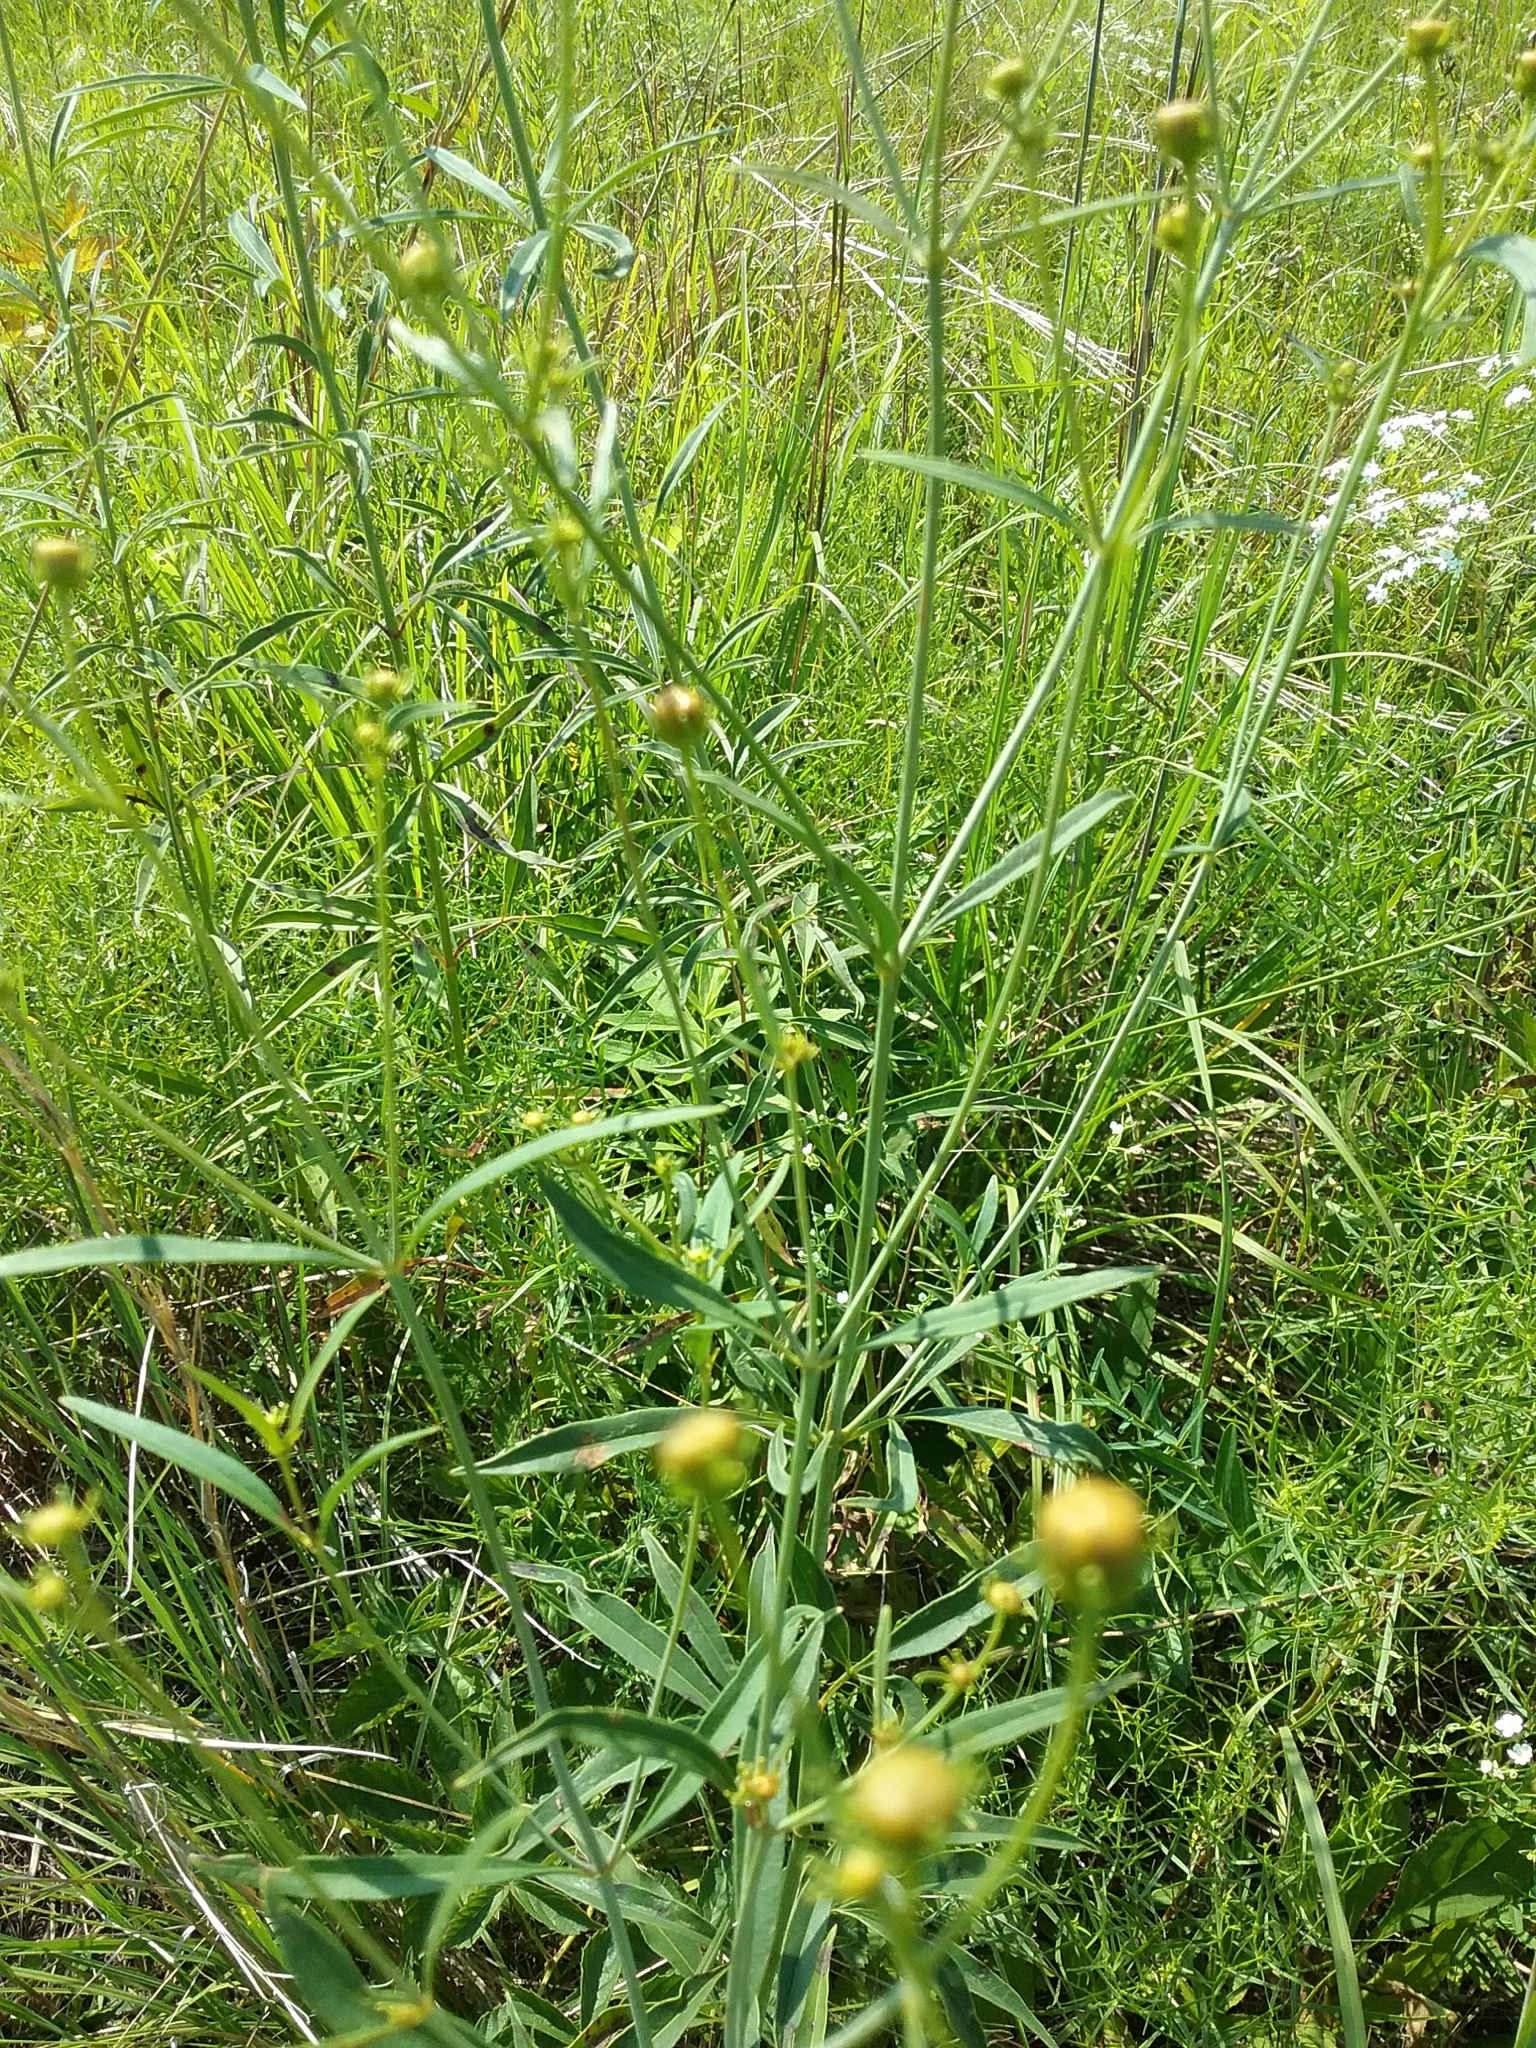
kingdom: Plantae
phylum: Tracheophyta
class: Magnoliopsida
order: Asterales
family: Asteraceae
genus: Coreopsis
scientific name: Coreopsis tripteris
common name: Tall coreopsis
